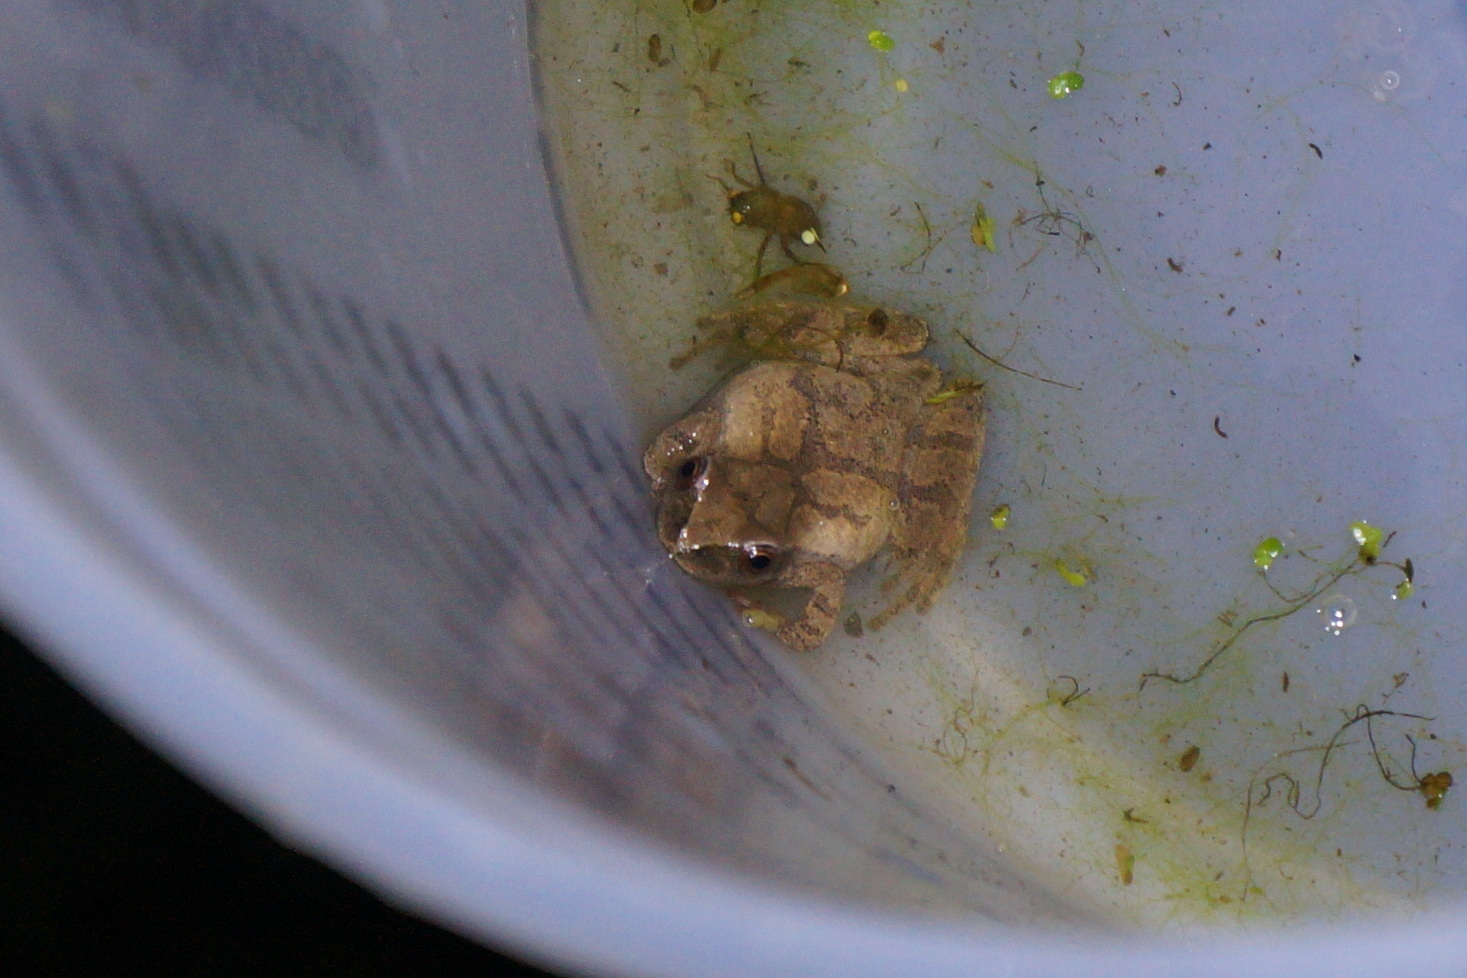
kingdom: Animalia
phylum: Chordata
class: Amphibia
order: Anura
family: Hylidae
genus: Pseudacris
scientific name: Pseudacris crucifer
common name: Spring peeper
